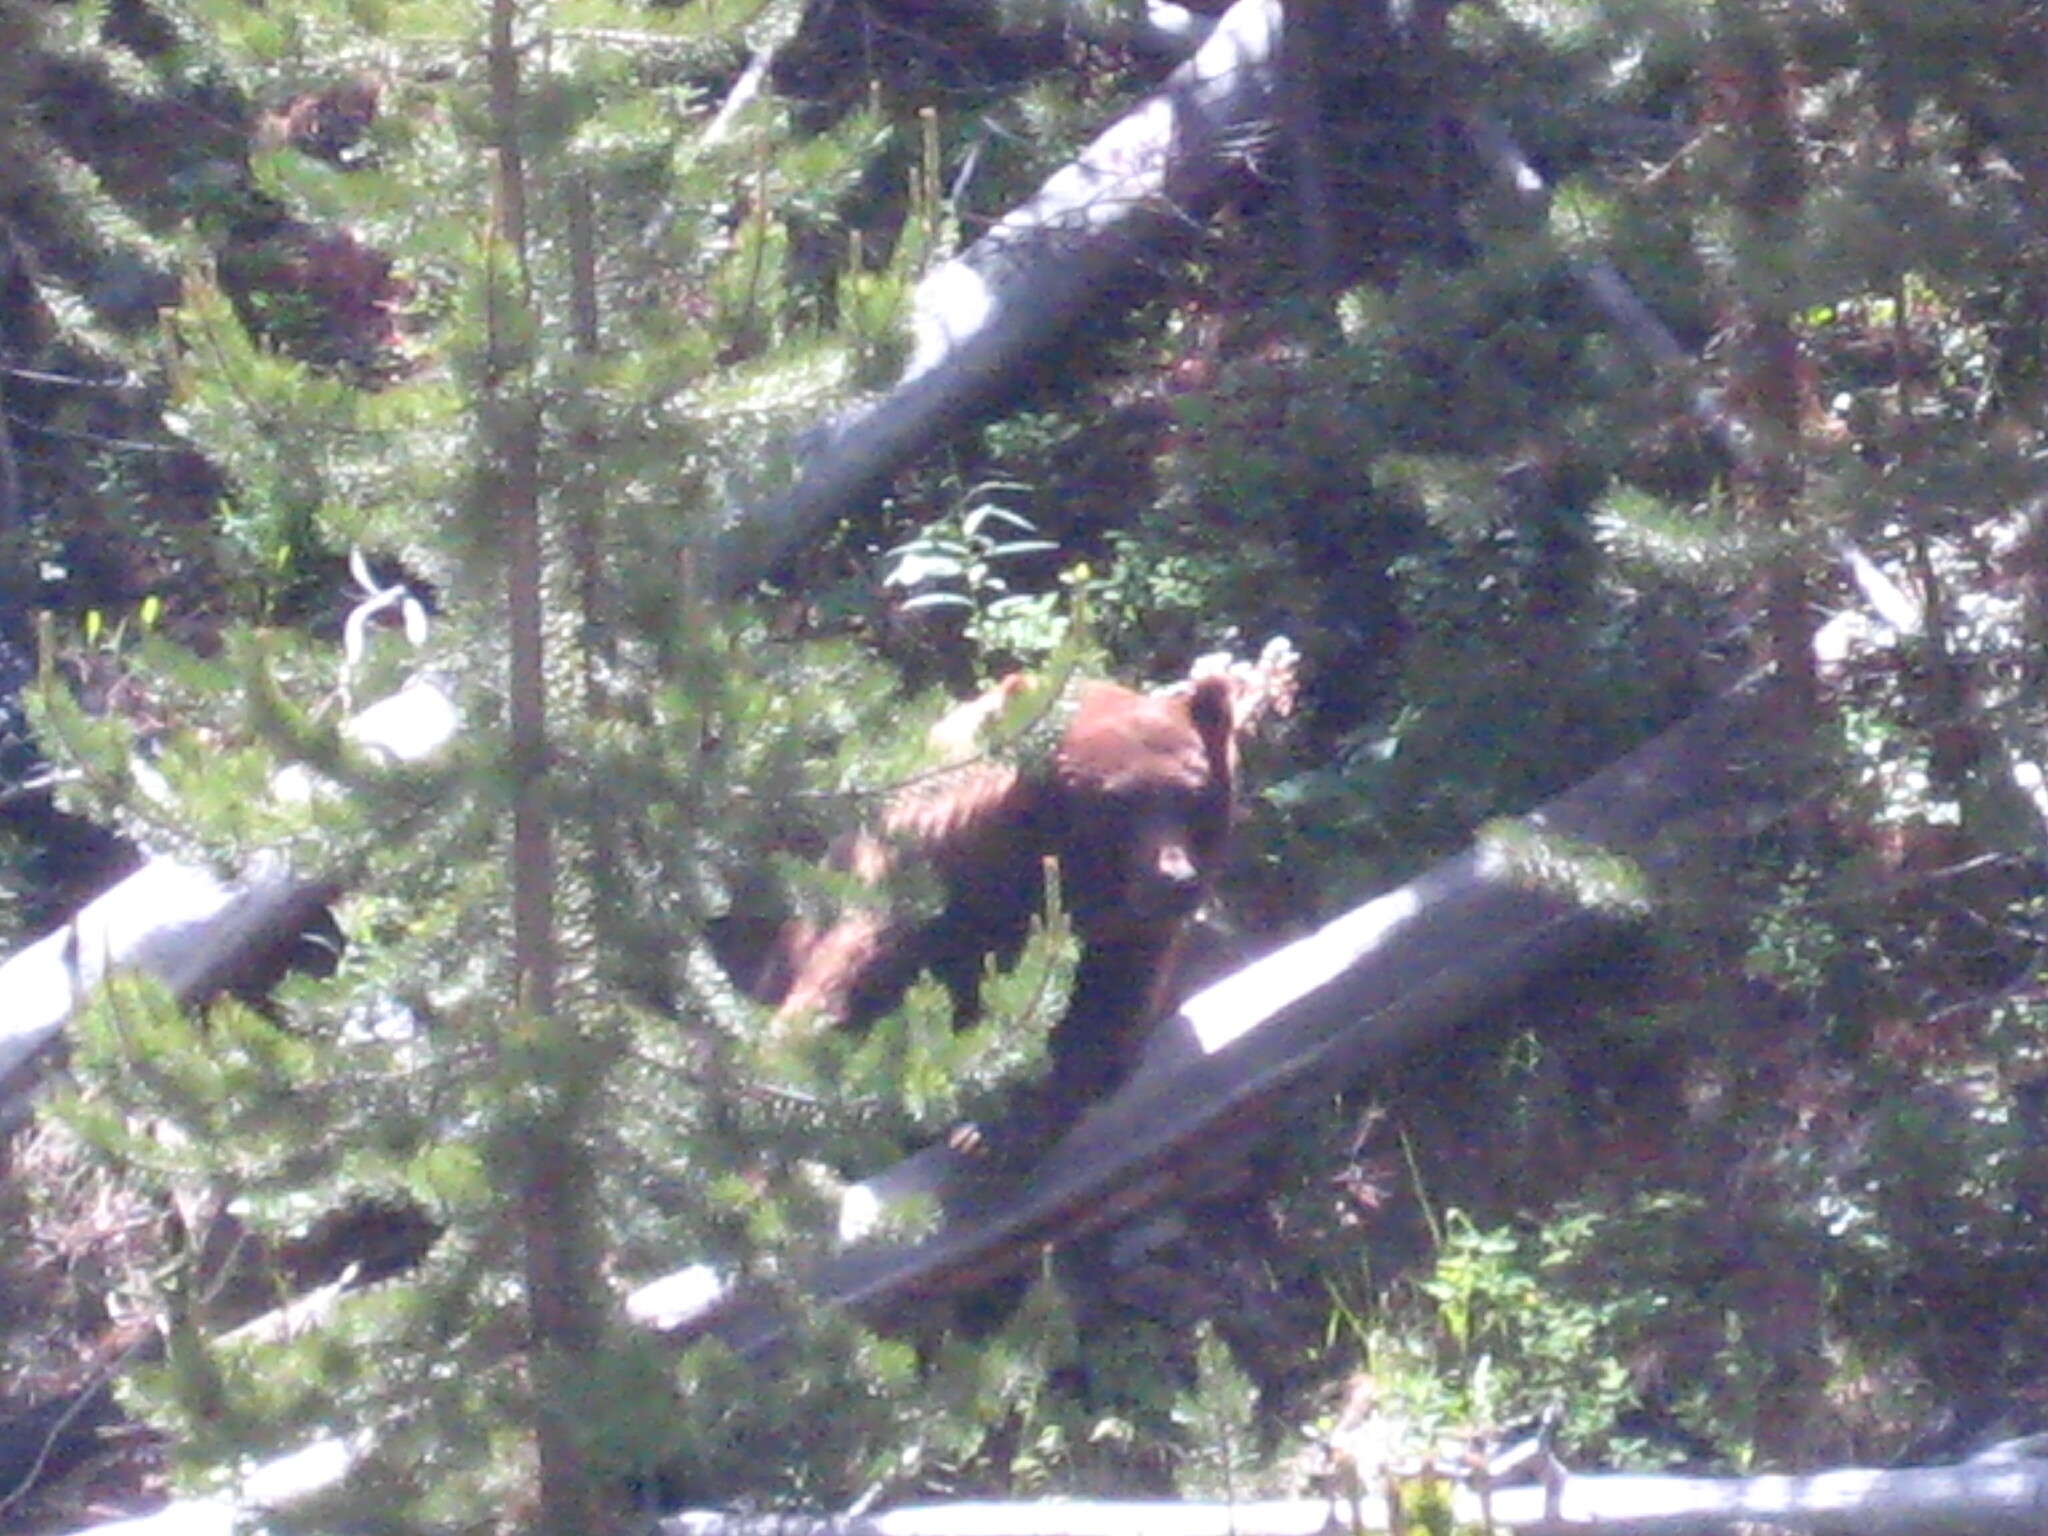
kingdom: Animalia
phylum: Chordata
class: Mammalia
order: Carnivora
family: Ursidae
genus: Ursus
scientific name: Ursus americanus
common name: American black bear
